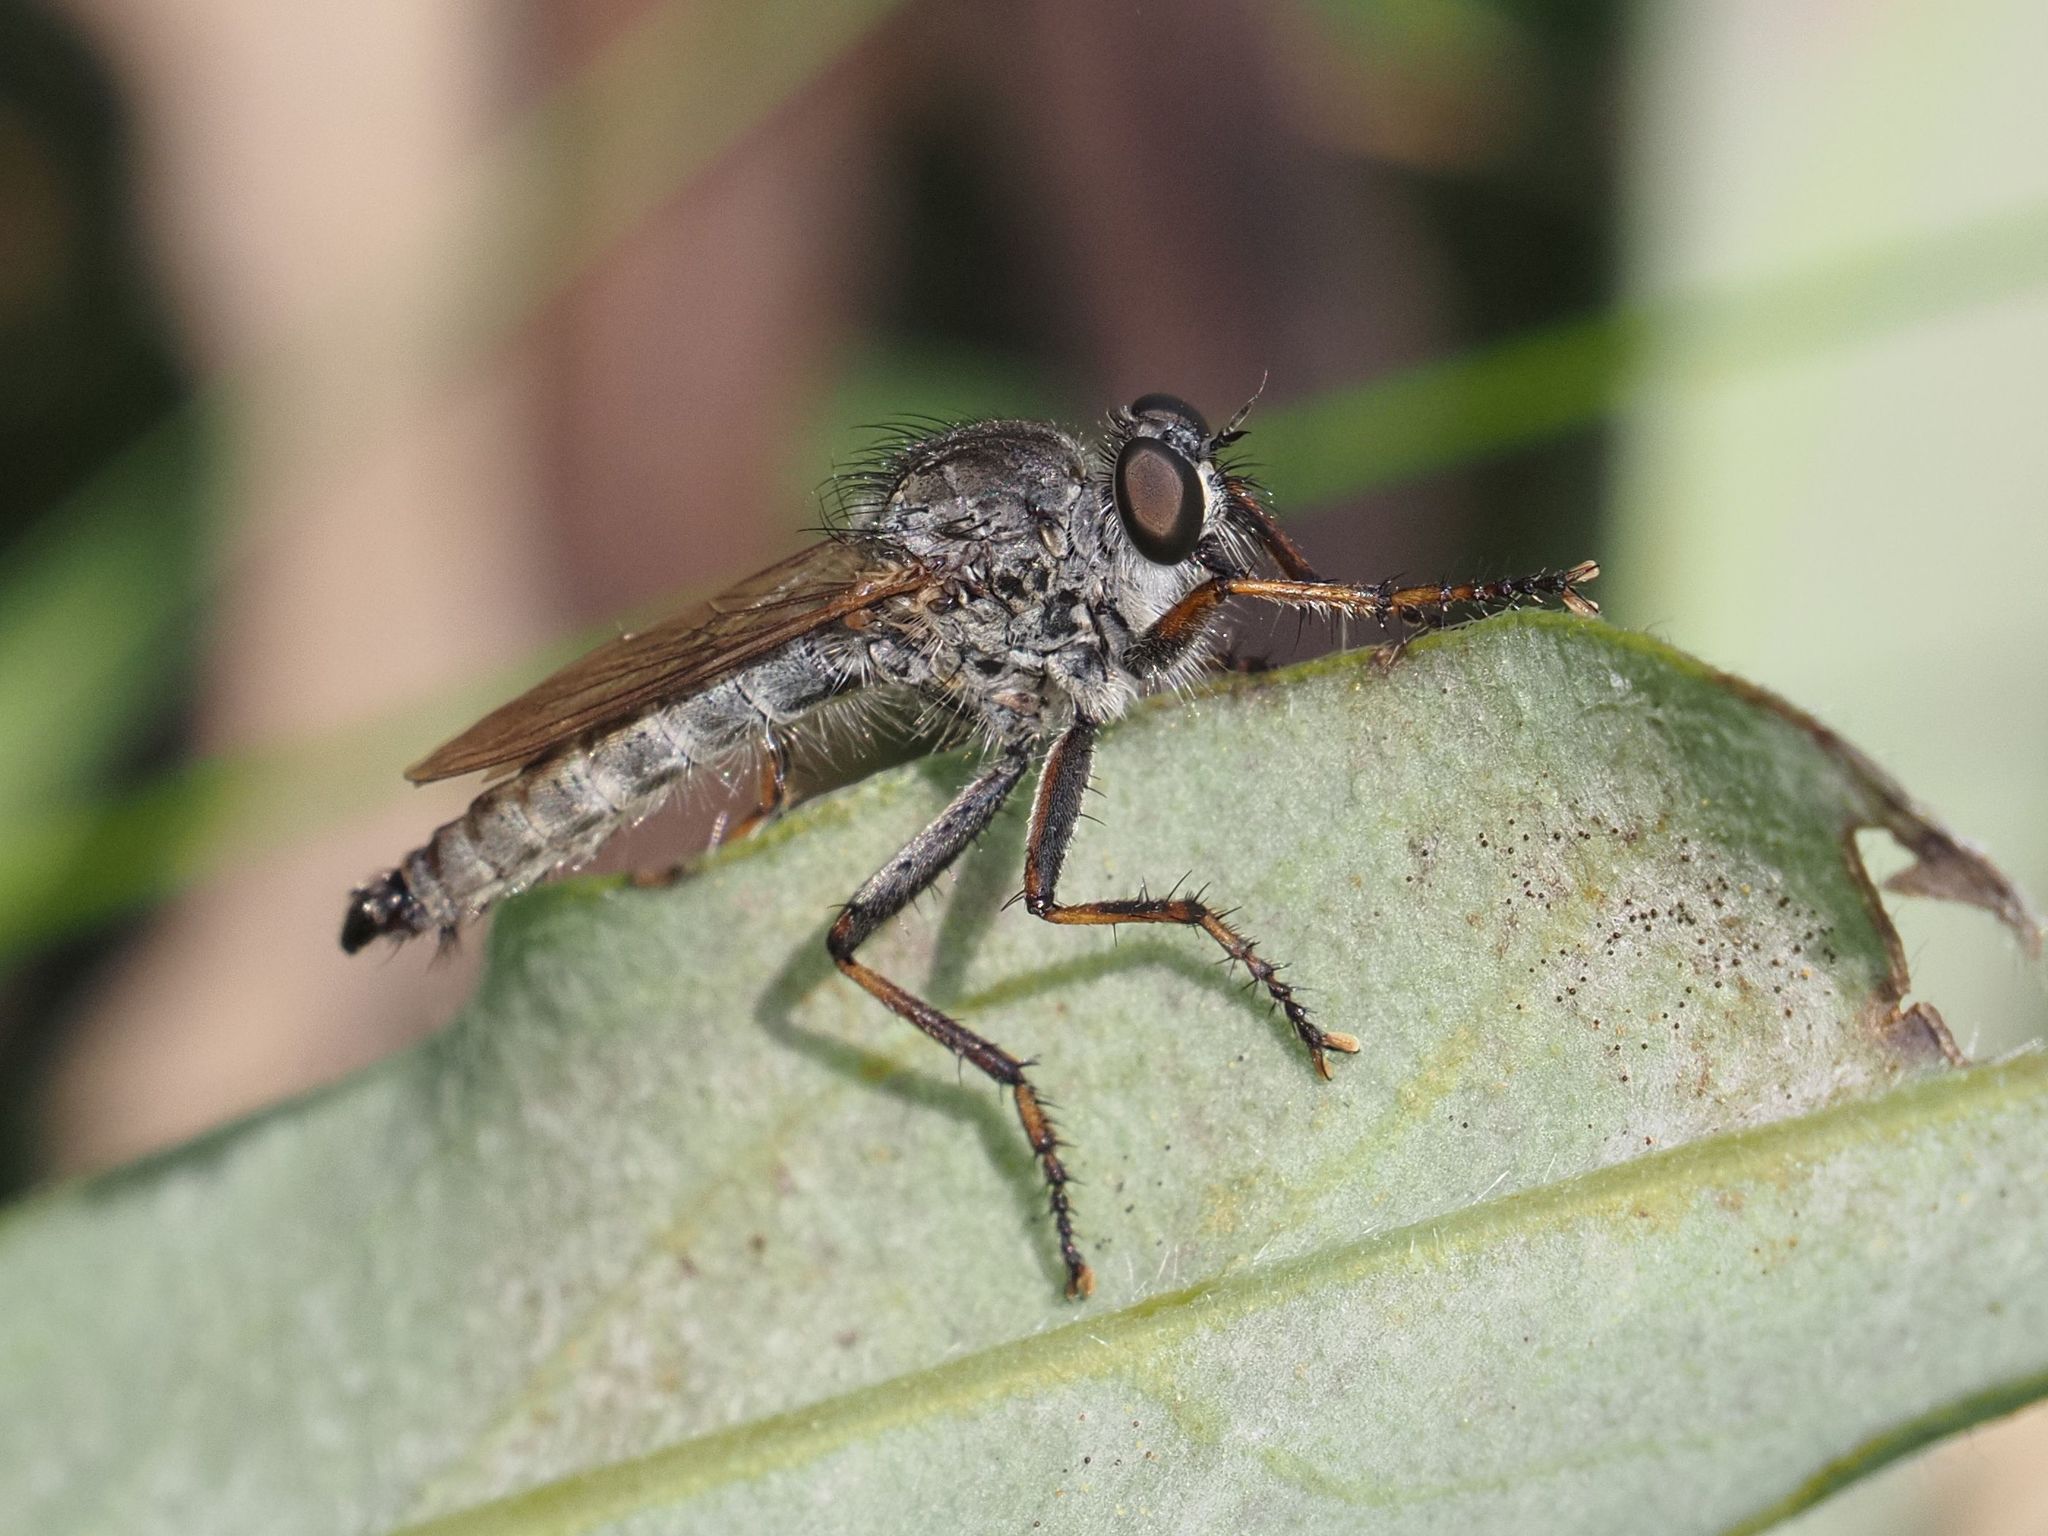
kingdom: Animalia
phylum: Arthropoda
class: Insecta
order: Diptera
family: Asilidae
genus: Machimus
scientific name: Machimus atricapillus
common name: Kite-tailed robberfly
